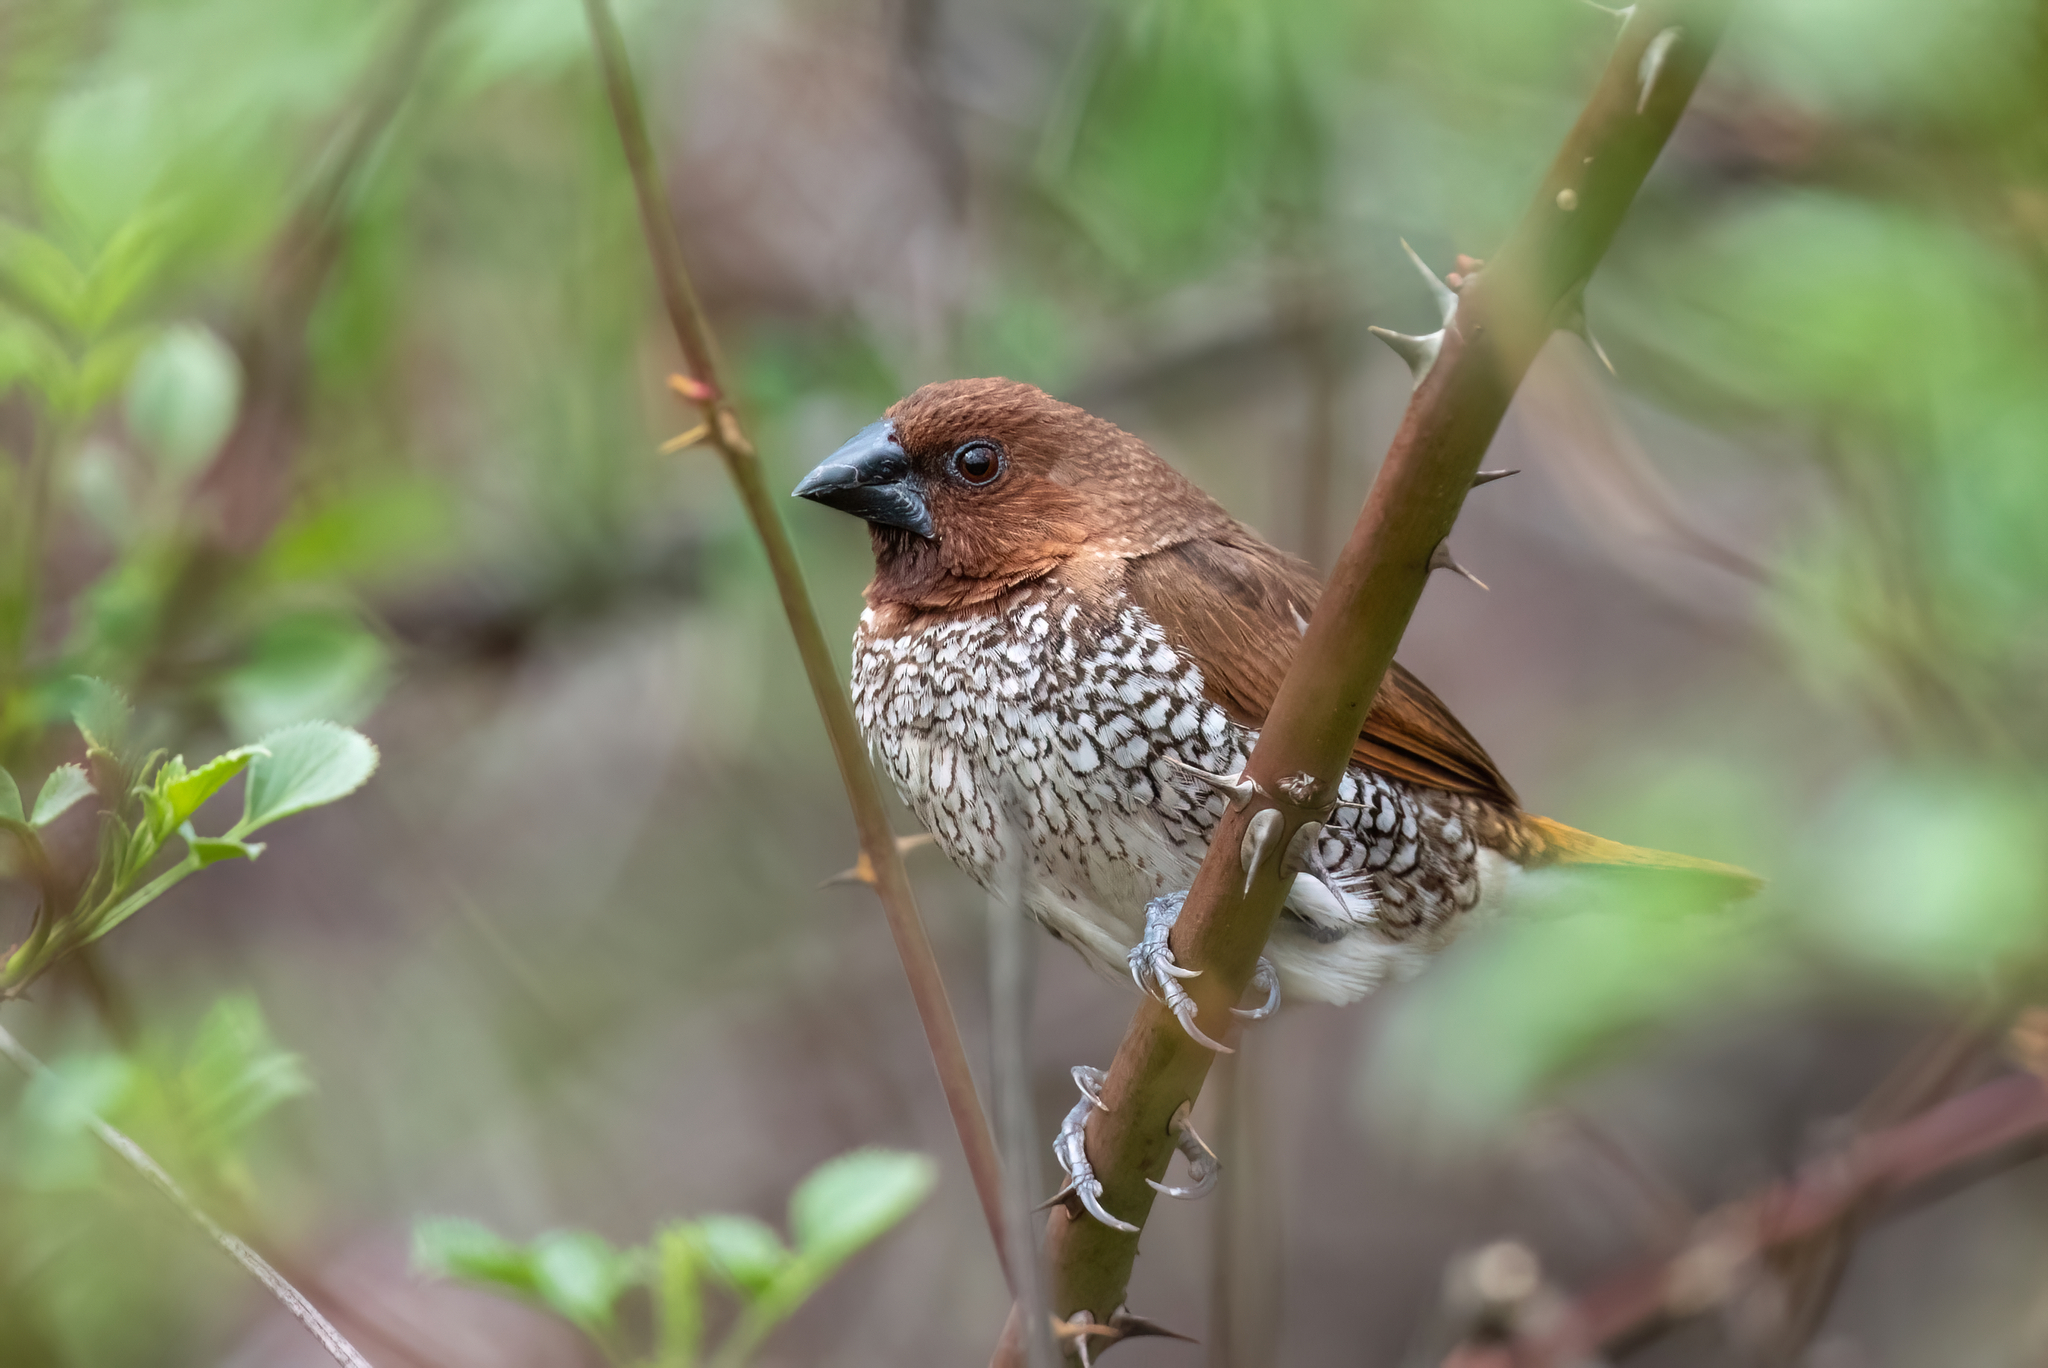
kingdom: Animalia
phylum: Chordata
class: Aves
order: Passeriformes
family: Estrildidae
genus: Lonchura
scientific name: Lonchura punctulata
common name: Scaly-breasted munia
